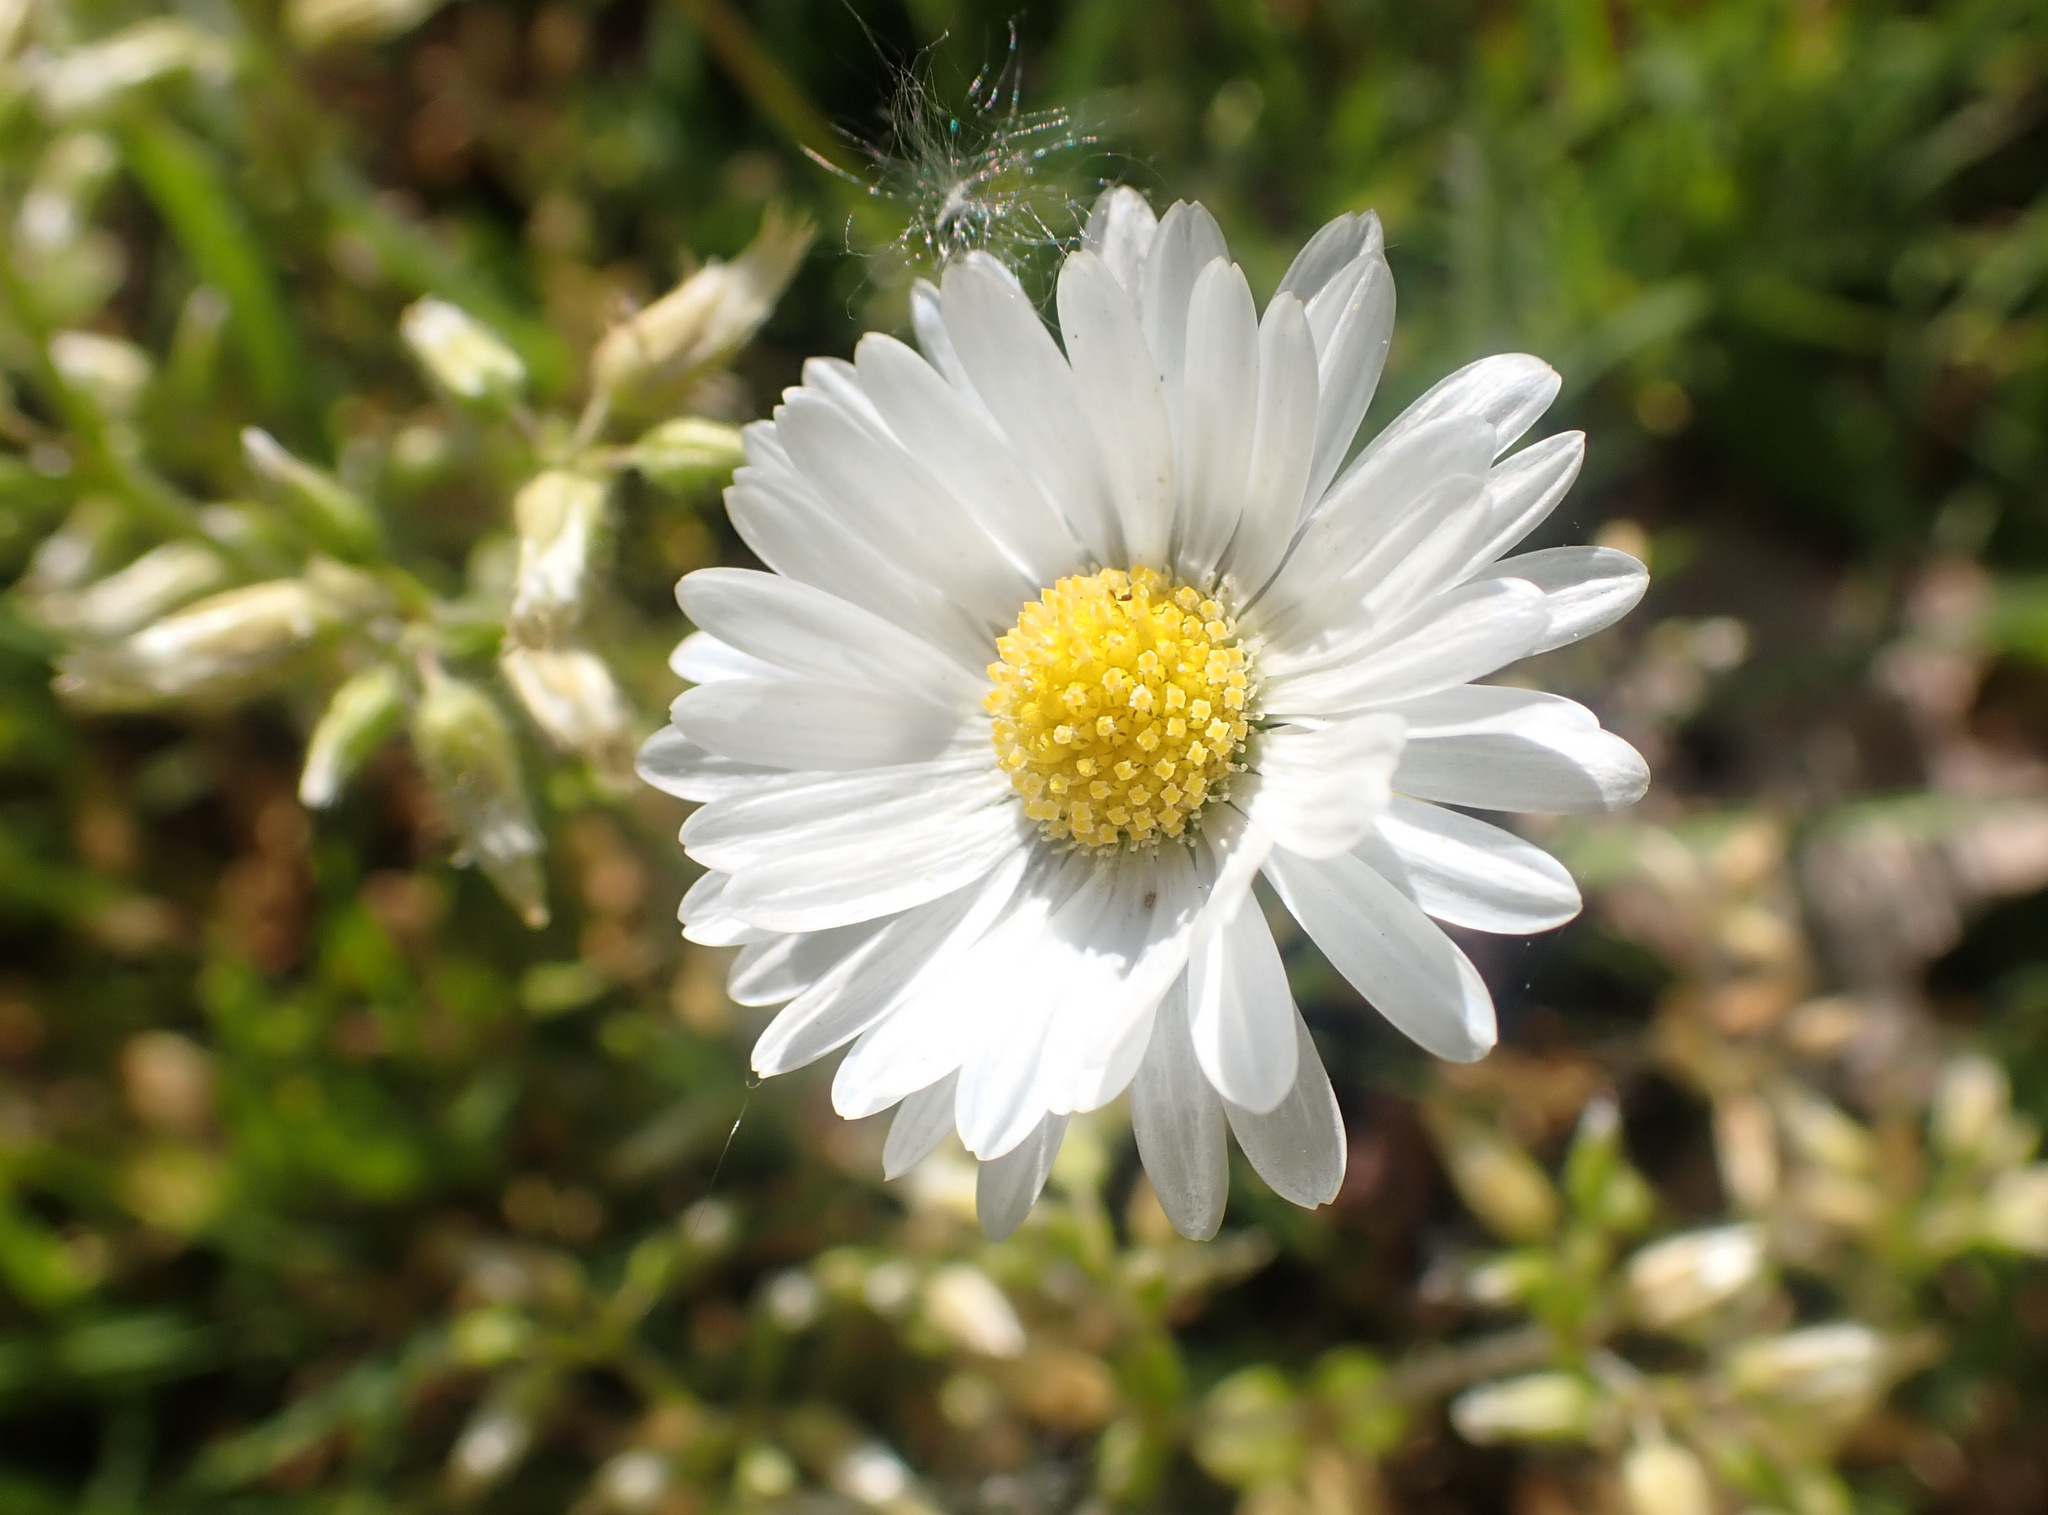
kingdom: Plantae
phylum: Tracheophyta
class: Magnoliopsida
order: Asterales
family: Asteraceae
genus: Bellis
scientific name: Bellis perennis
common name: Lawndaisy
